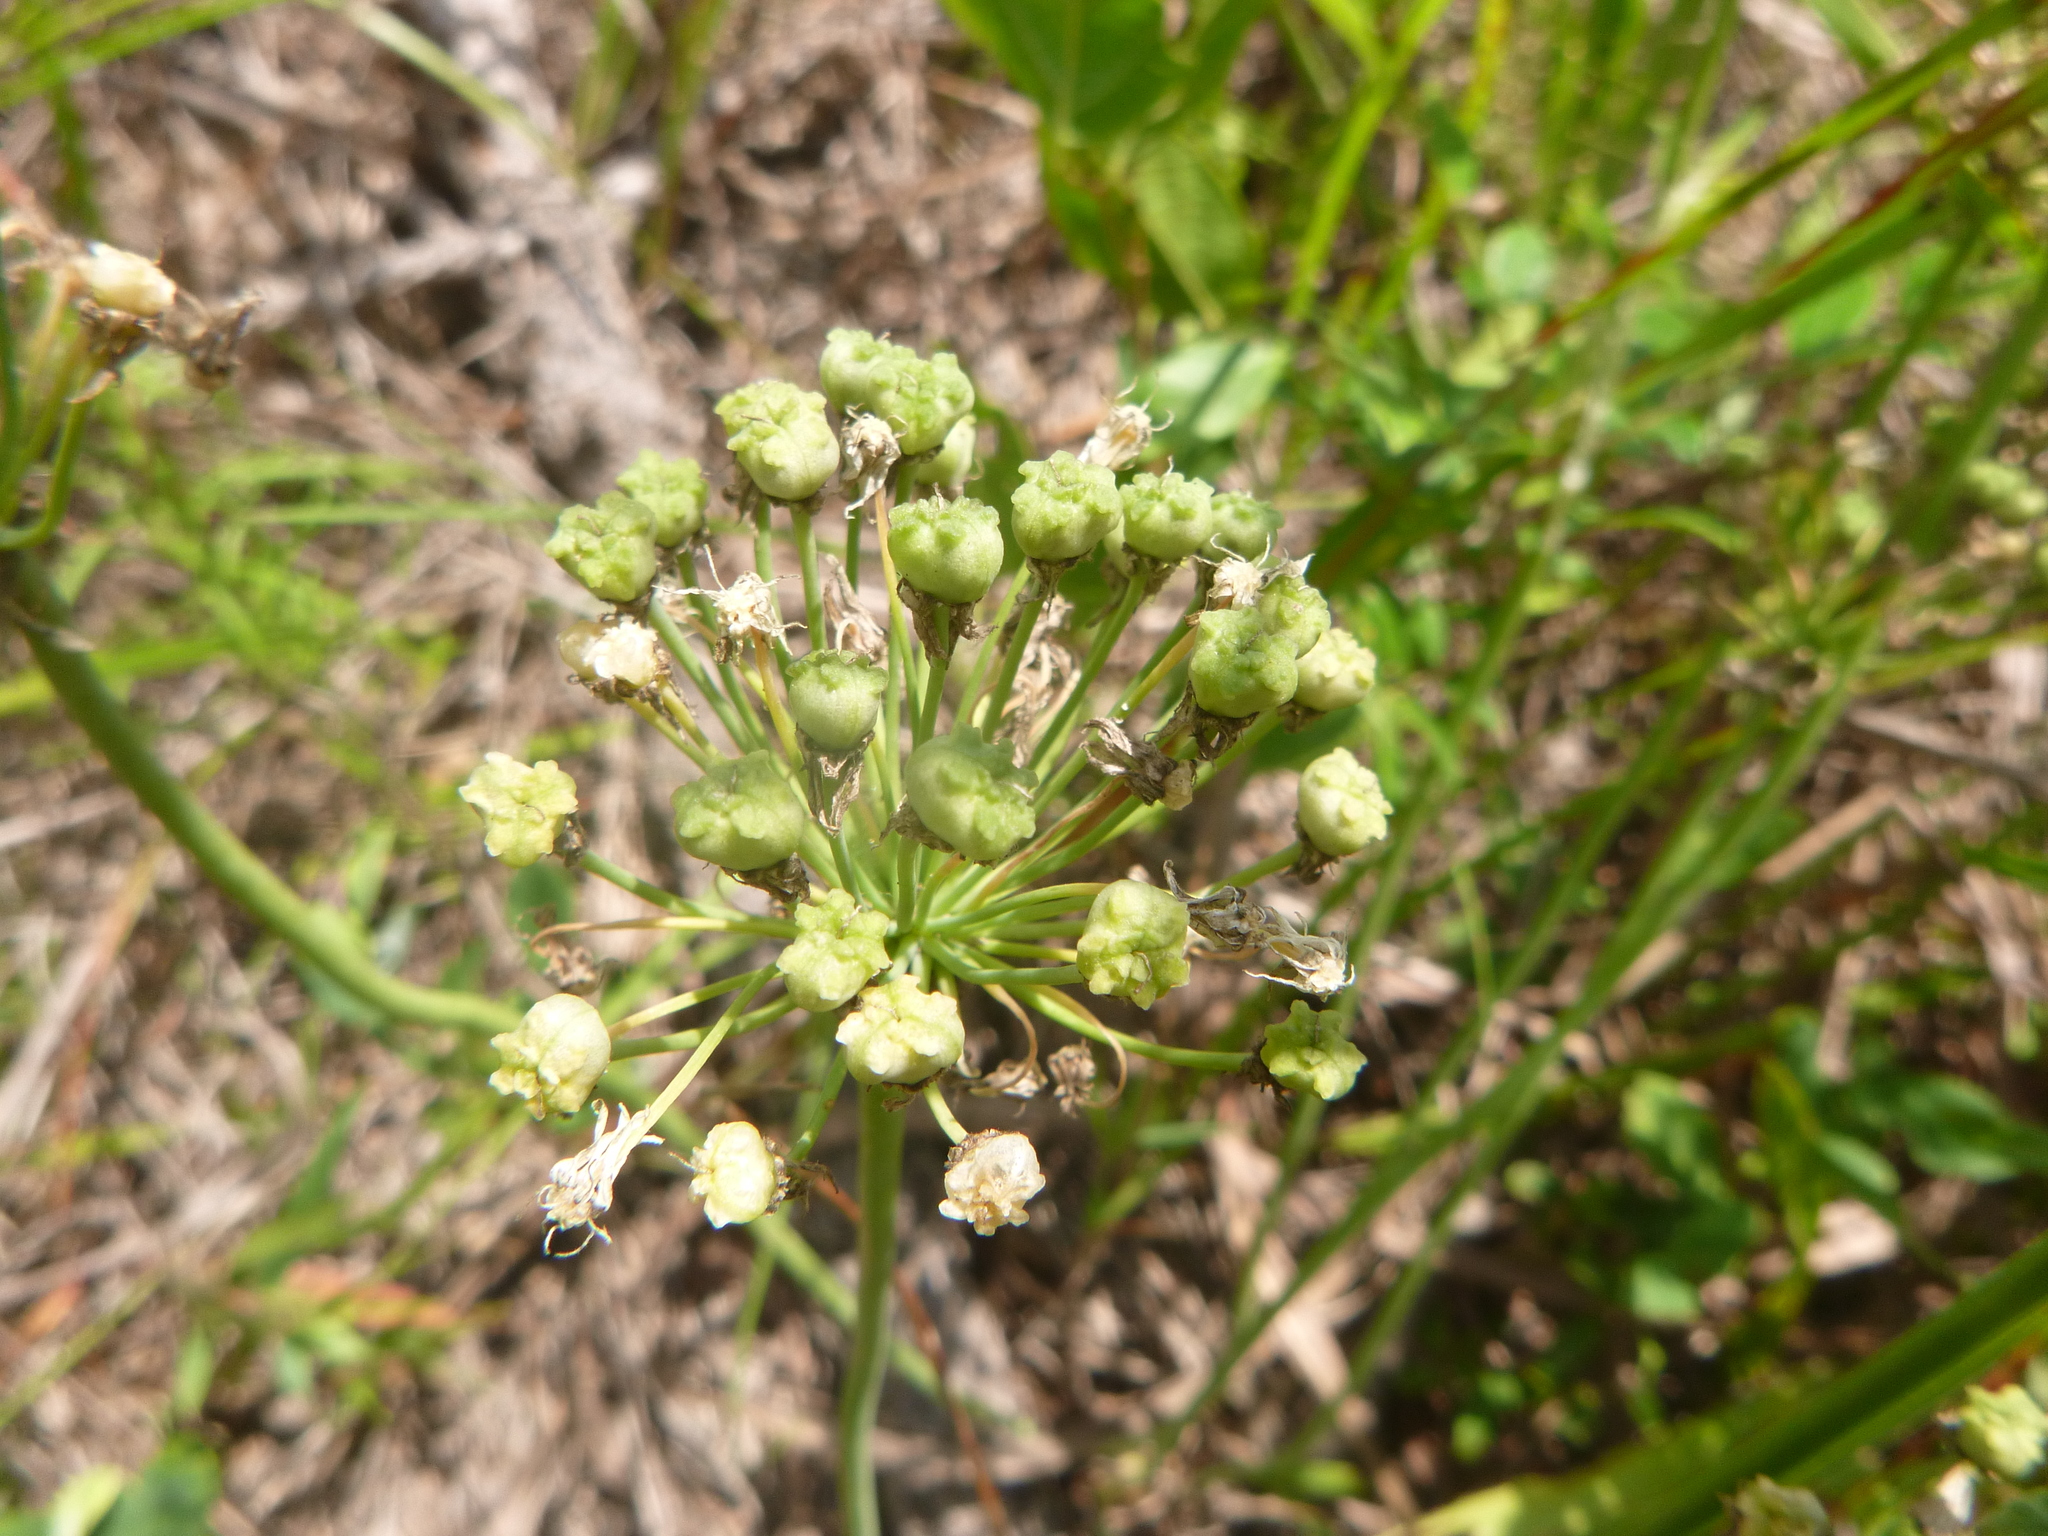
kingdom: Plantae
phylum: Tracheophyta
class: Liliopsida
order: Asparagales
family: Amaryllidaceae
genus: Allium
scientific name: Allium cuthbertii
